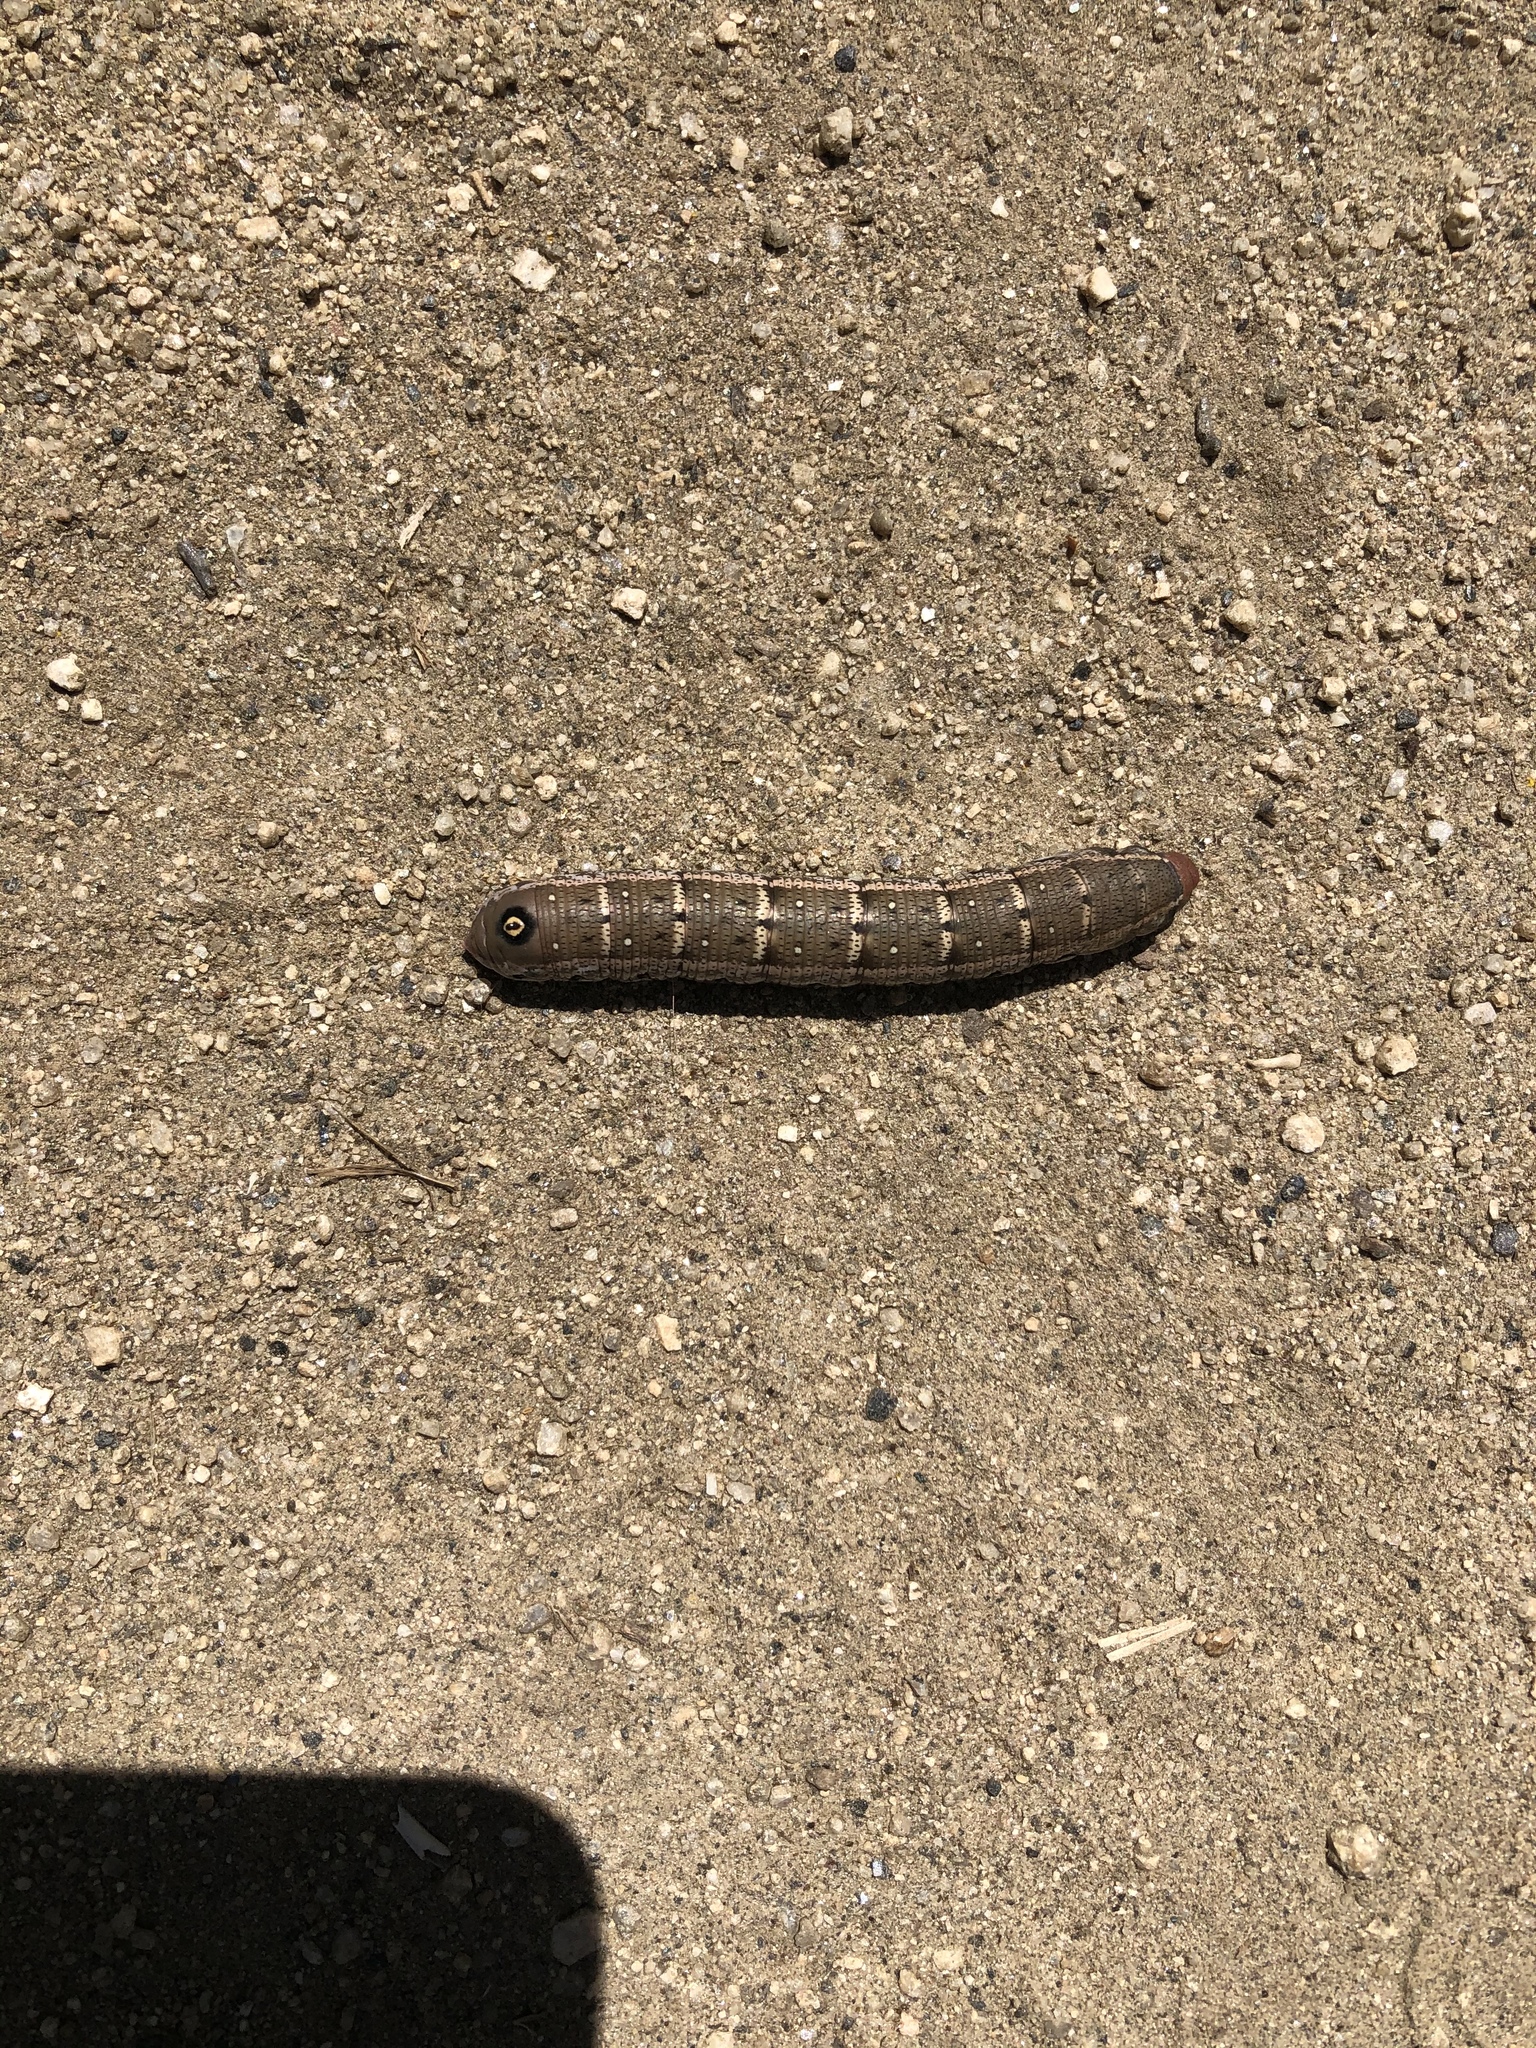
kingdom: Animalia
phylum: Arthropoda
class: Insecta
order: Lepidoptera
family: Sphingidae
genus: Proserpinus
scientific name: Proserpinus lucidus
